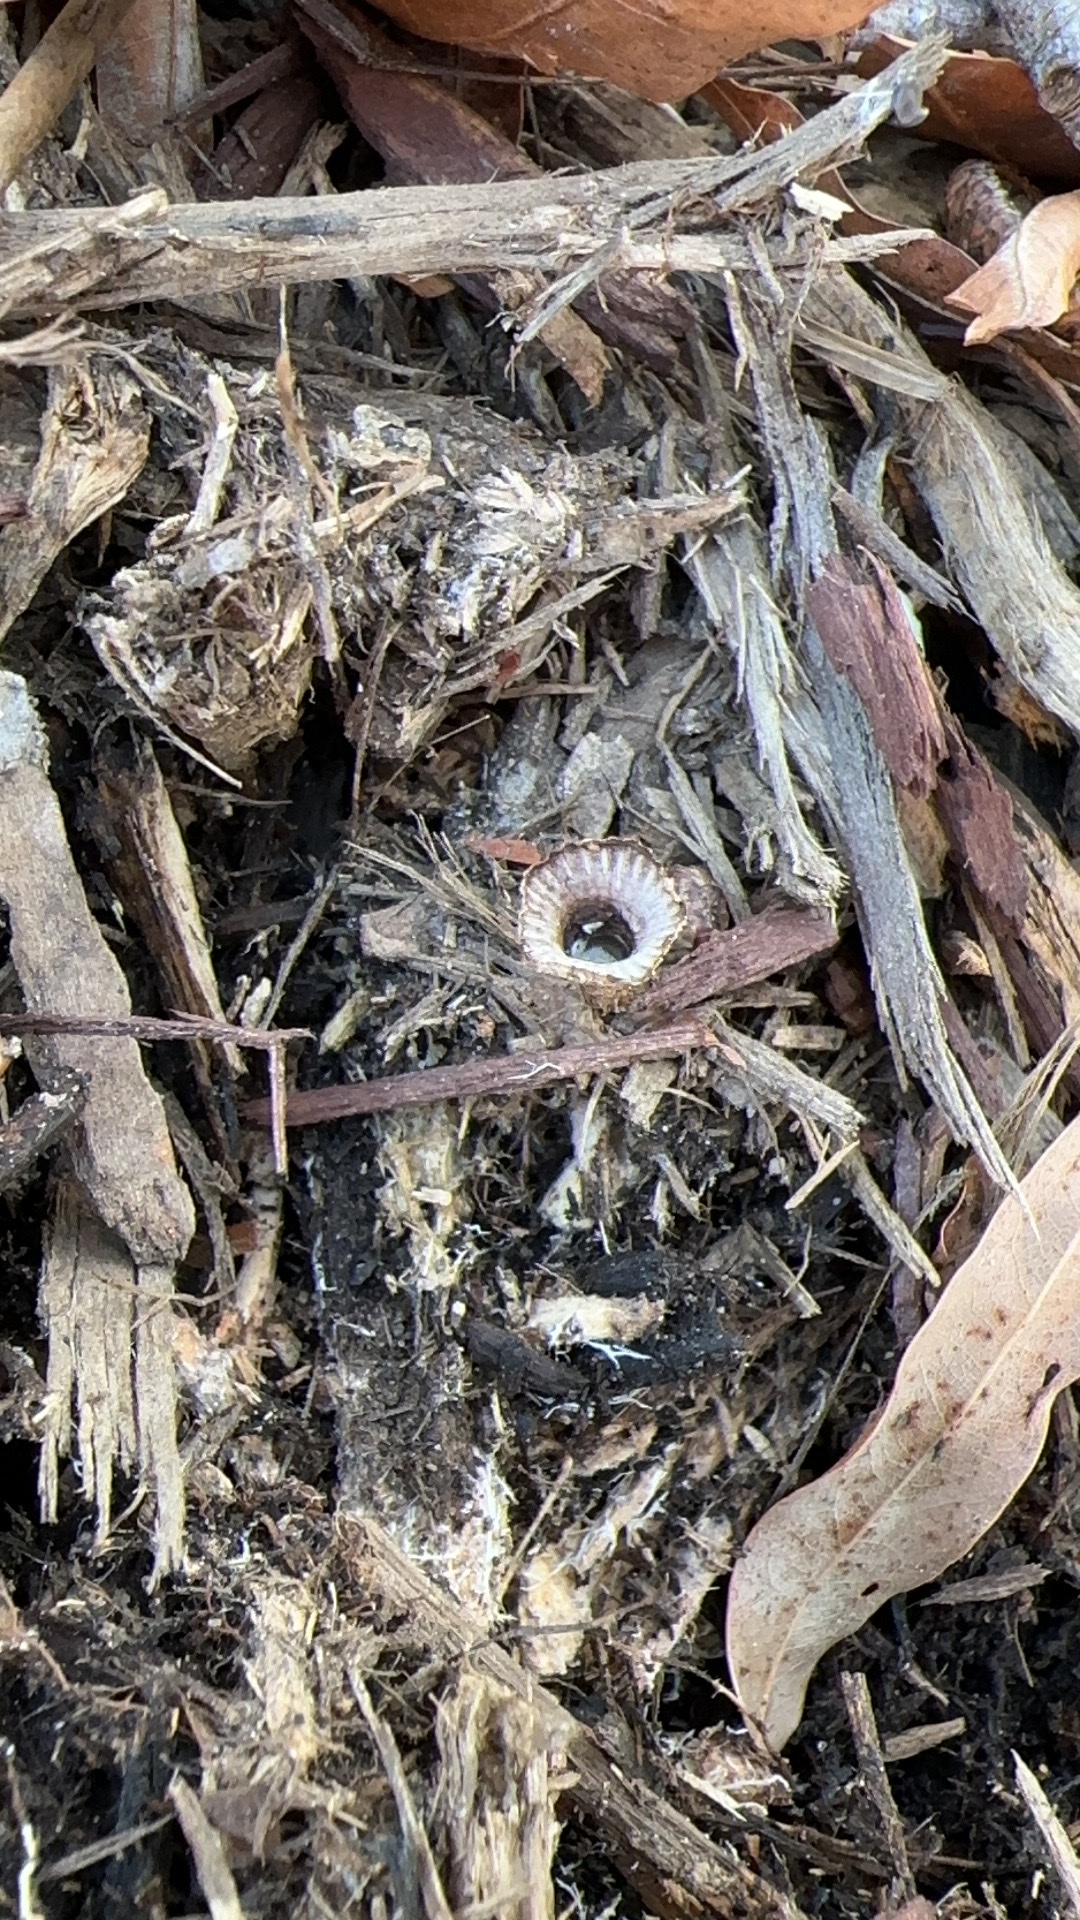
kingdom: Fungi
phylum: Basidiomycota
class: Agaricomycetes
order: Agaricales
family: Agaricaceae
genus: Cyathus
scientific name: Cyathus striatus
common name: Fluted bird's nest
